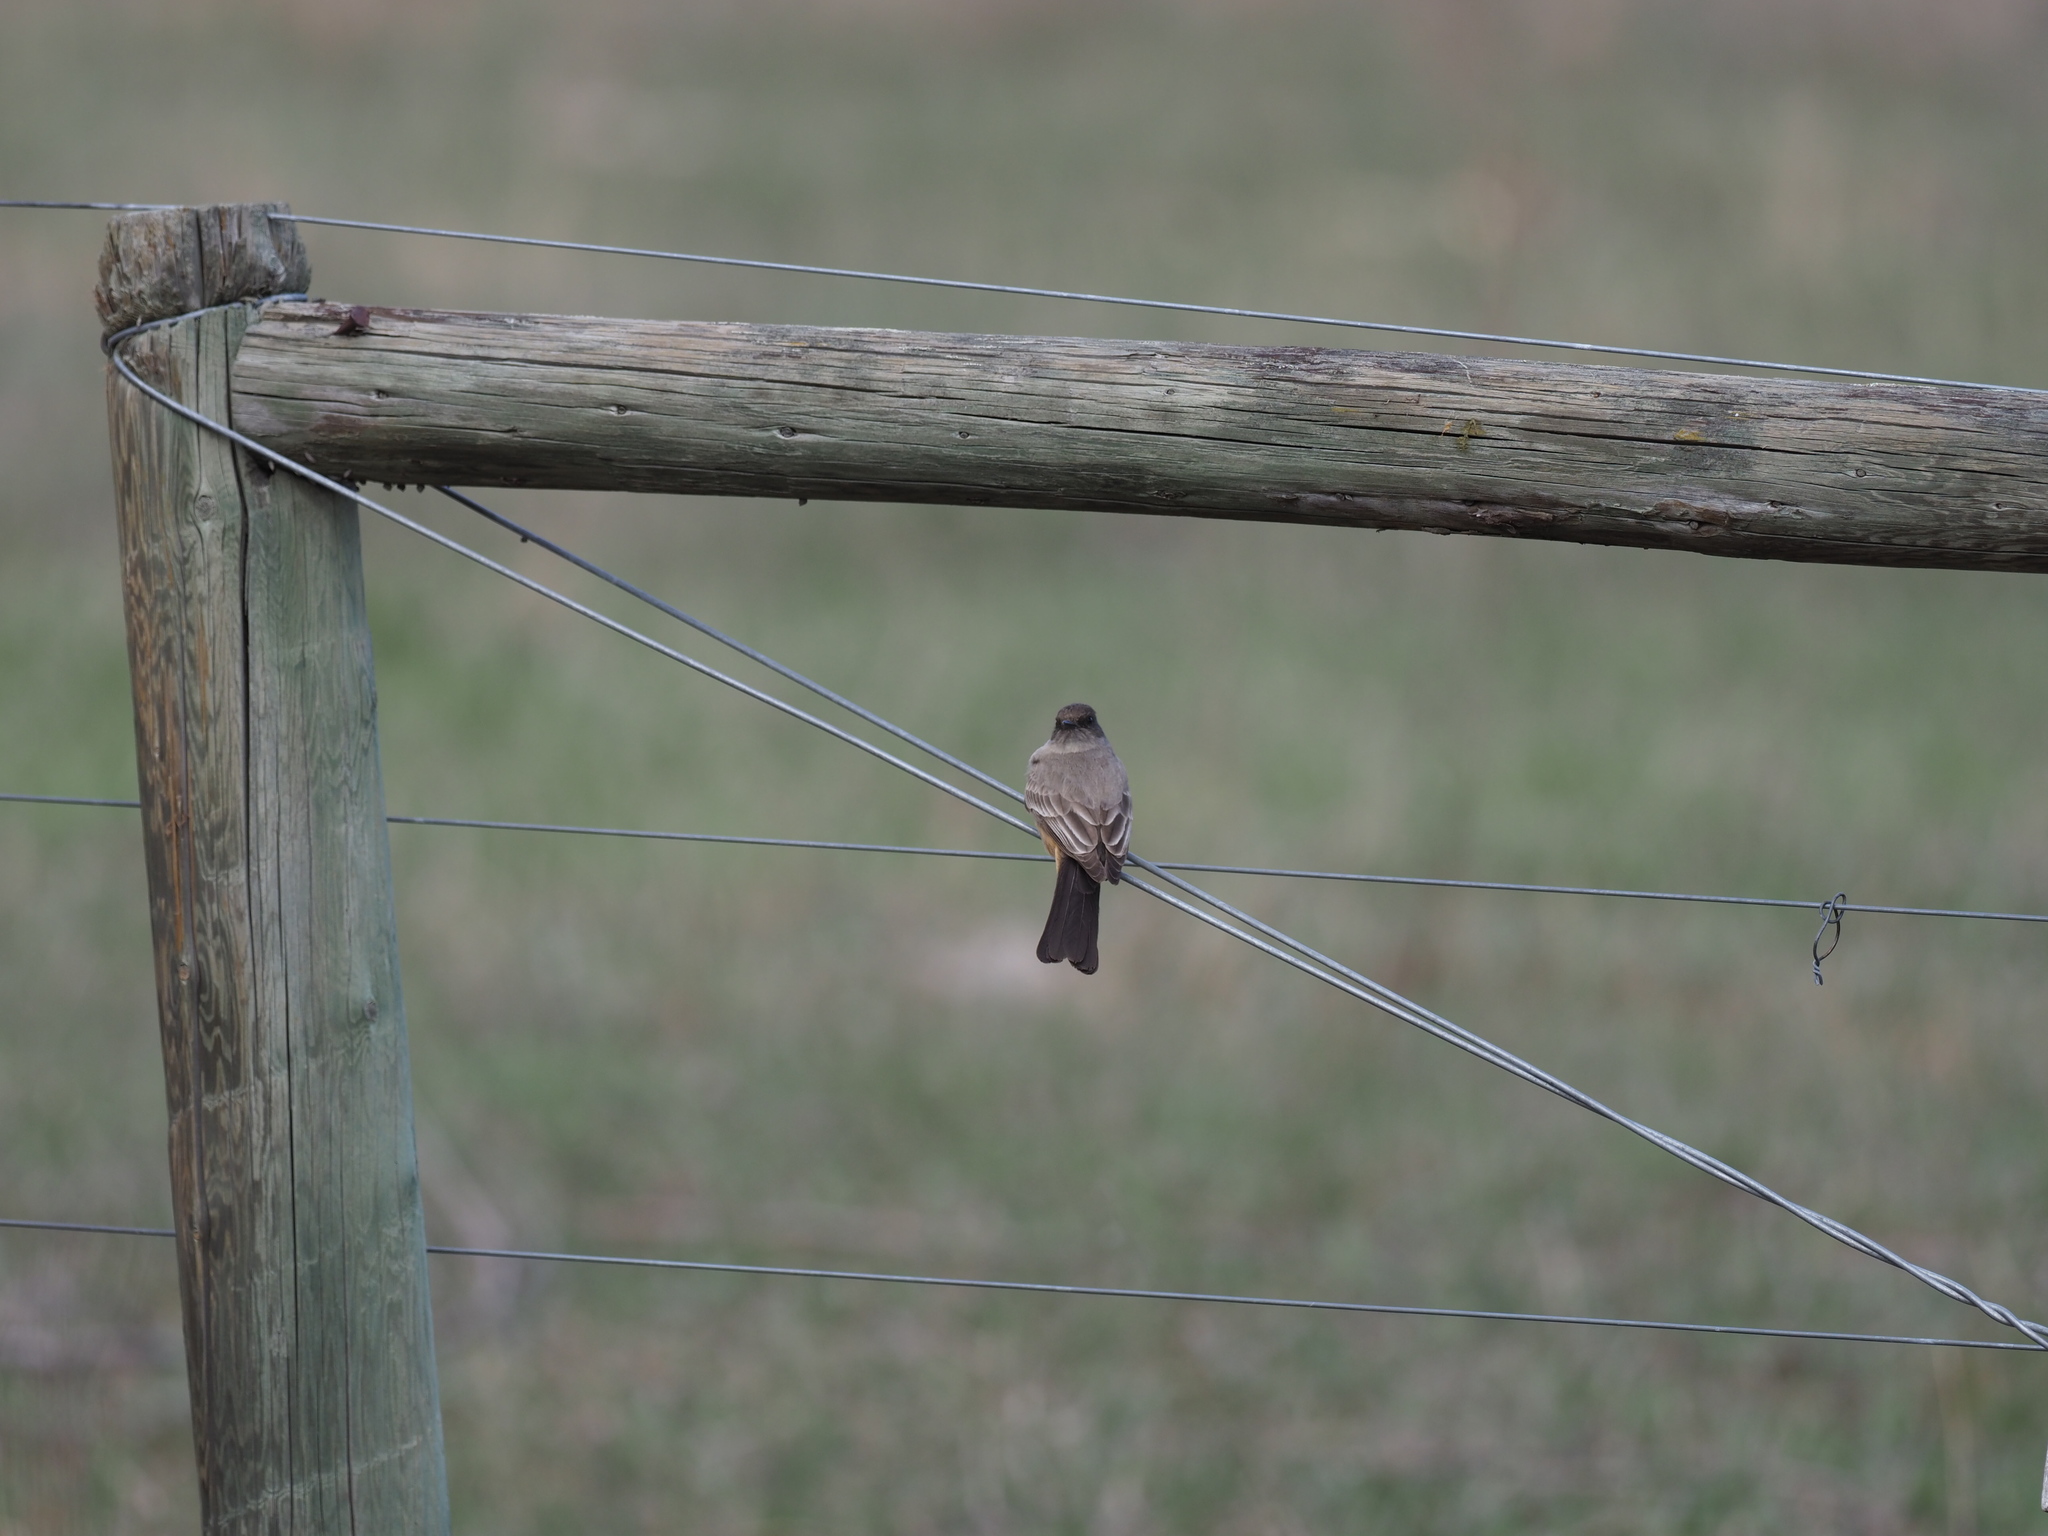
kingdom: Animalia
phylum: Chordata
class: Aves
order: Passeriformes
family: Tyrannidae
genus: Sayornis
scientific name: Sayornis saya
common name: Say's phoebe
